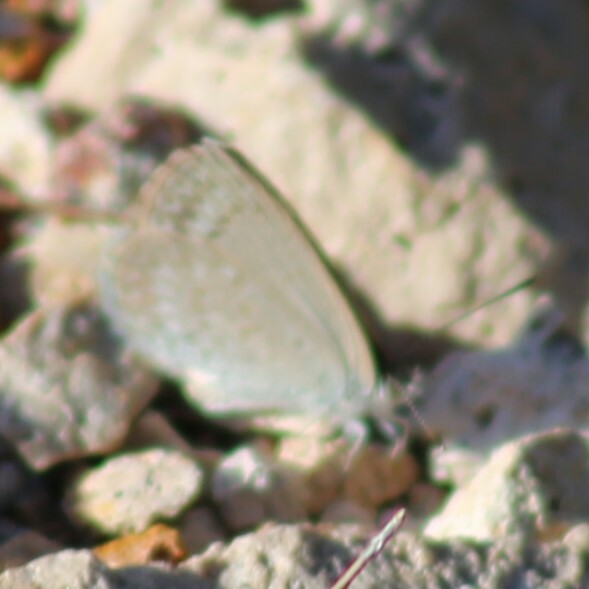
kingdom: Animalia
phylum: Arthropoda
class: Insecta
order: Lepidoptera
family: Lycaenidae
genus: Zizina
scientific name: Zizina labradus
